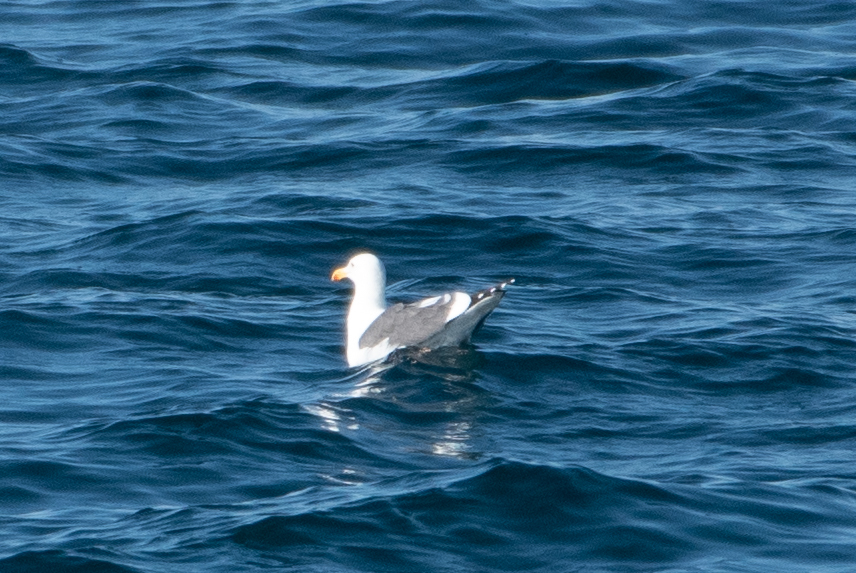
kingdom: Animalia
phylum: Chordata
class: Aves
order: Charadriiformes
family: Laridae
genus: Larus
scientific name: Larus occidentalis
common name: Western gull
